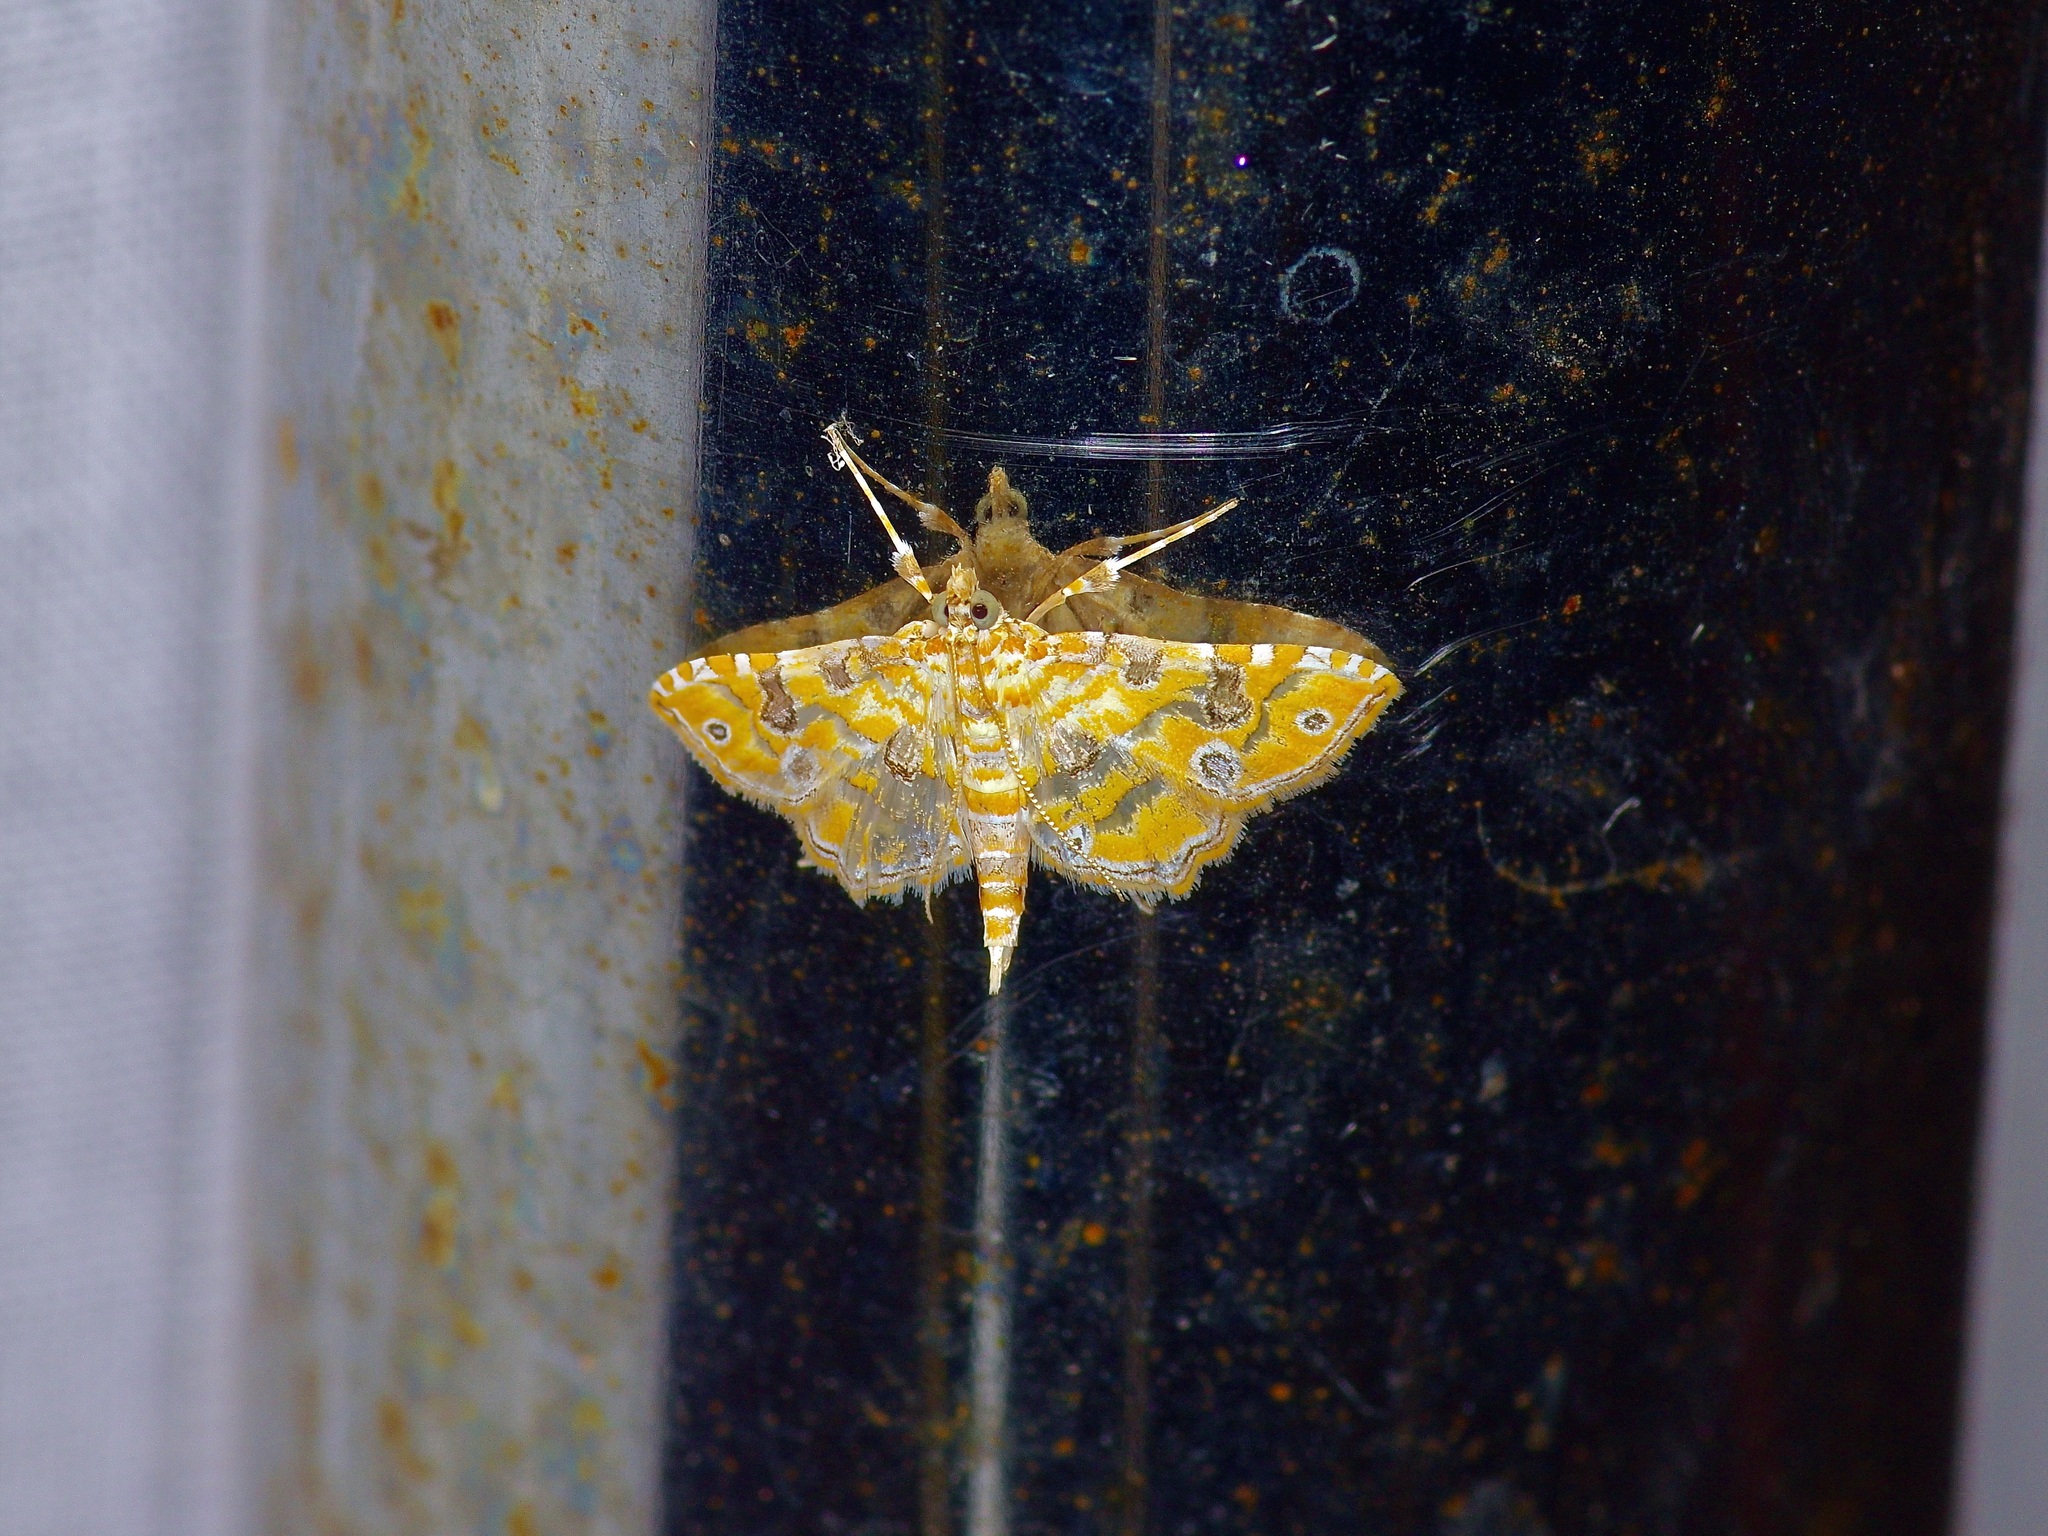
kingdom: Animalia
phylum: Arthropoda
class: Insecta
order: Lepidoptera
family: Crambidae
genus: Ommatospila
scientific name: Ommatospila narcaeusalis
